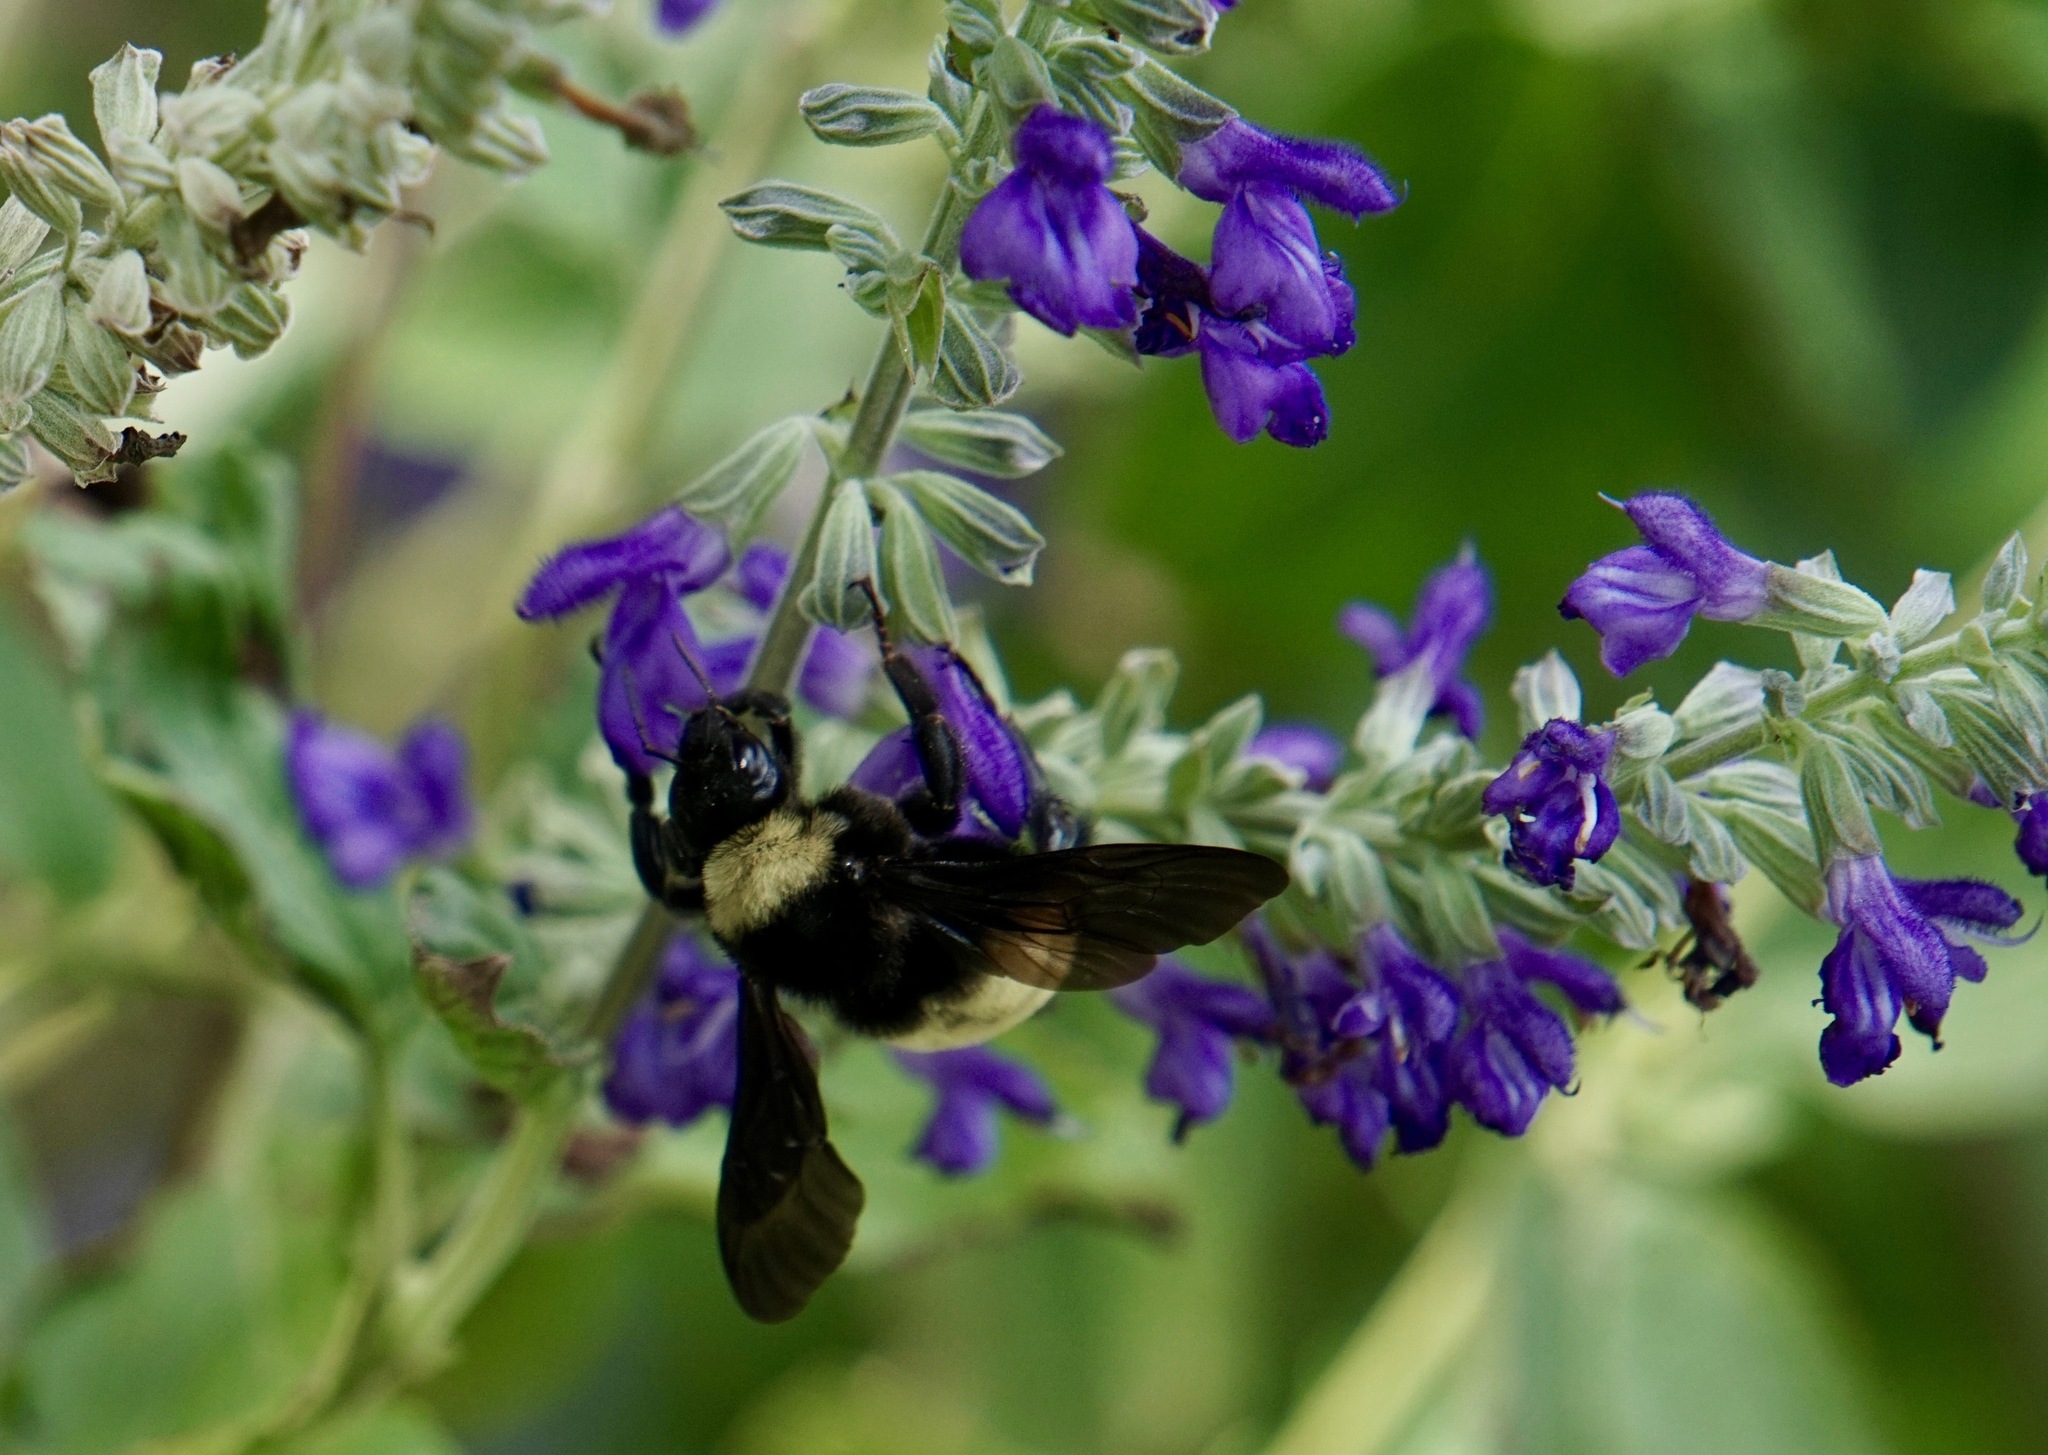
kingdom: Animalia
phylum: Arthropoda
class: Insecta
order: Hymenoptera
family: Apidae
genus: Bombus
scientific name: Bombus pensylvanicus
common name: Bumble bee
